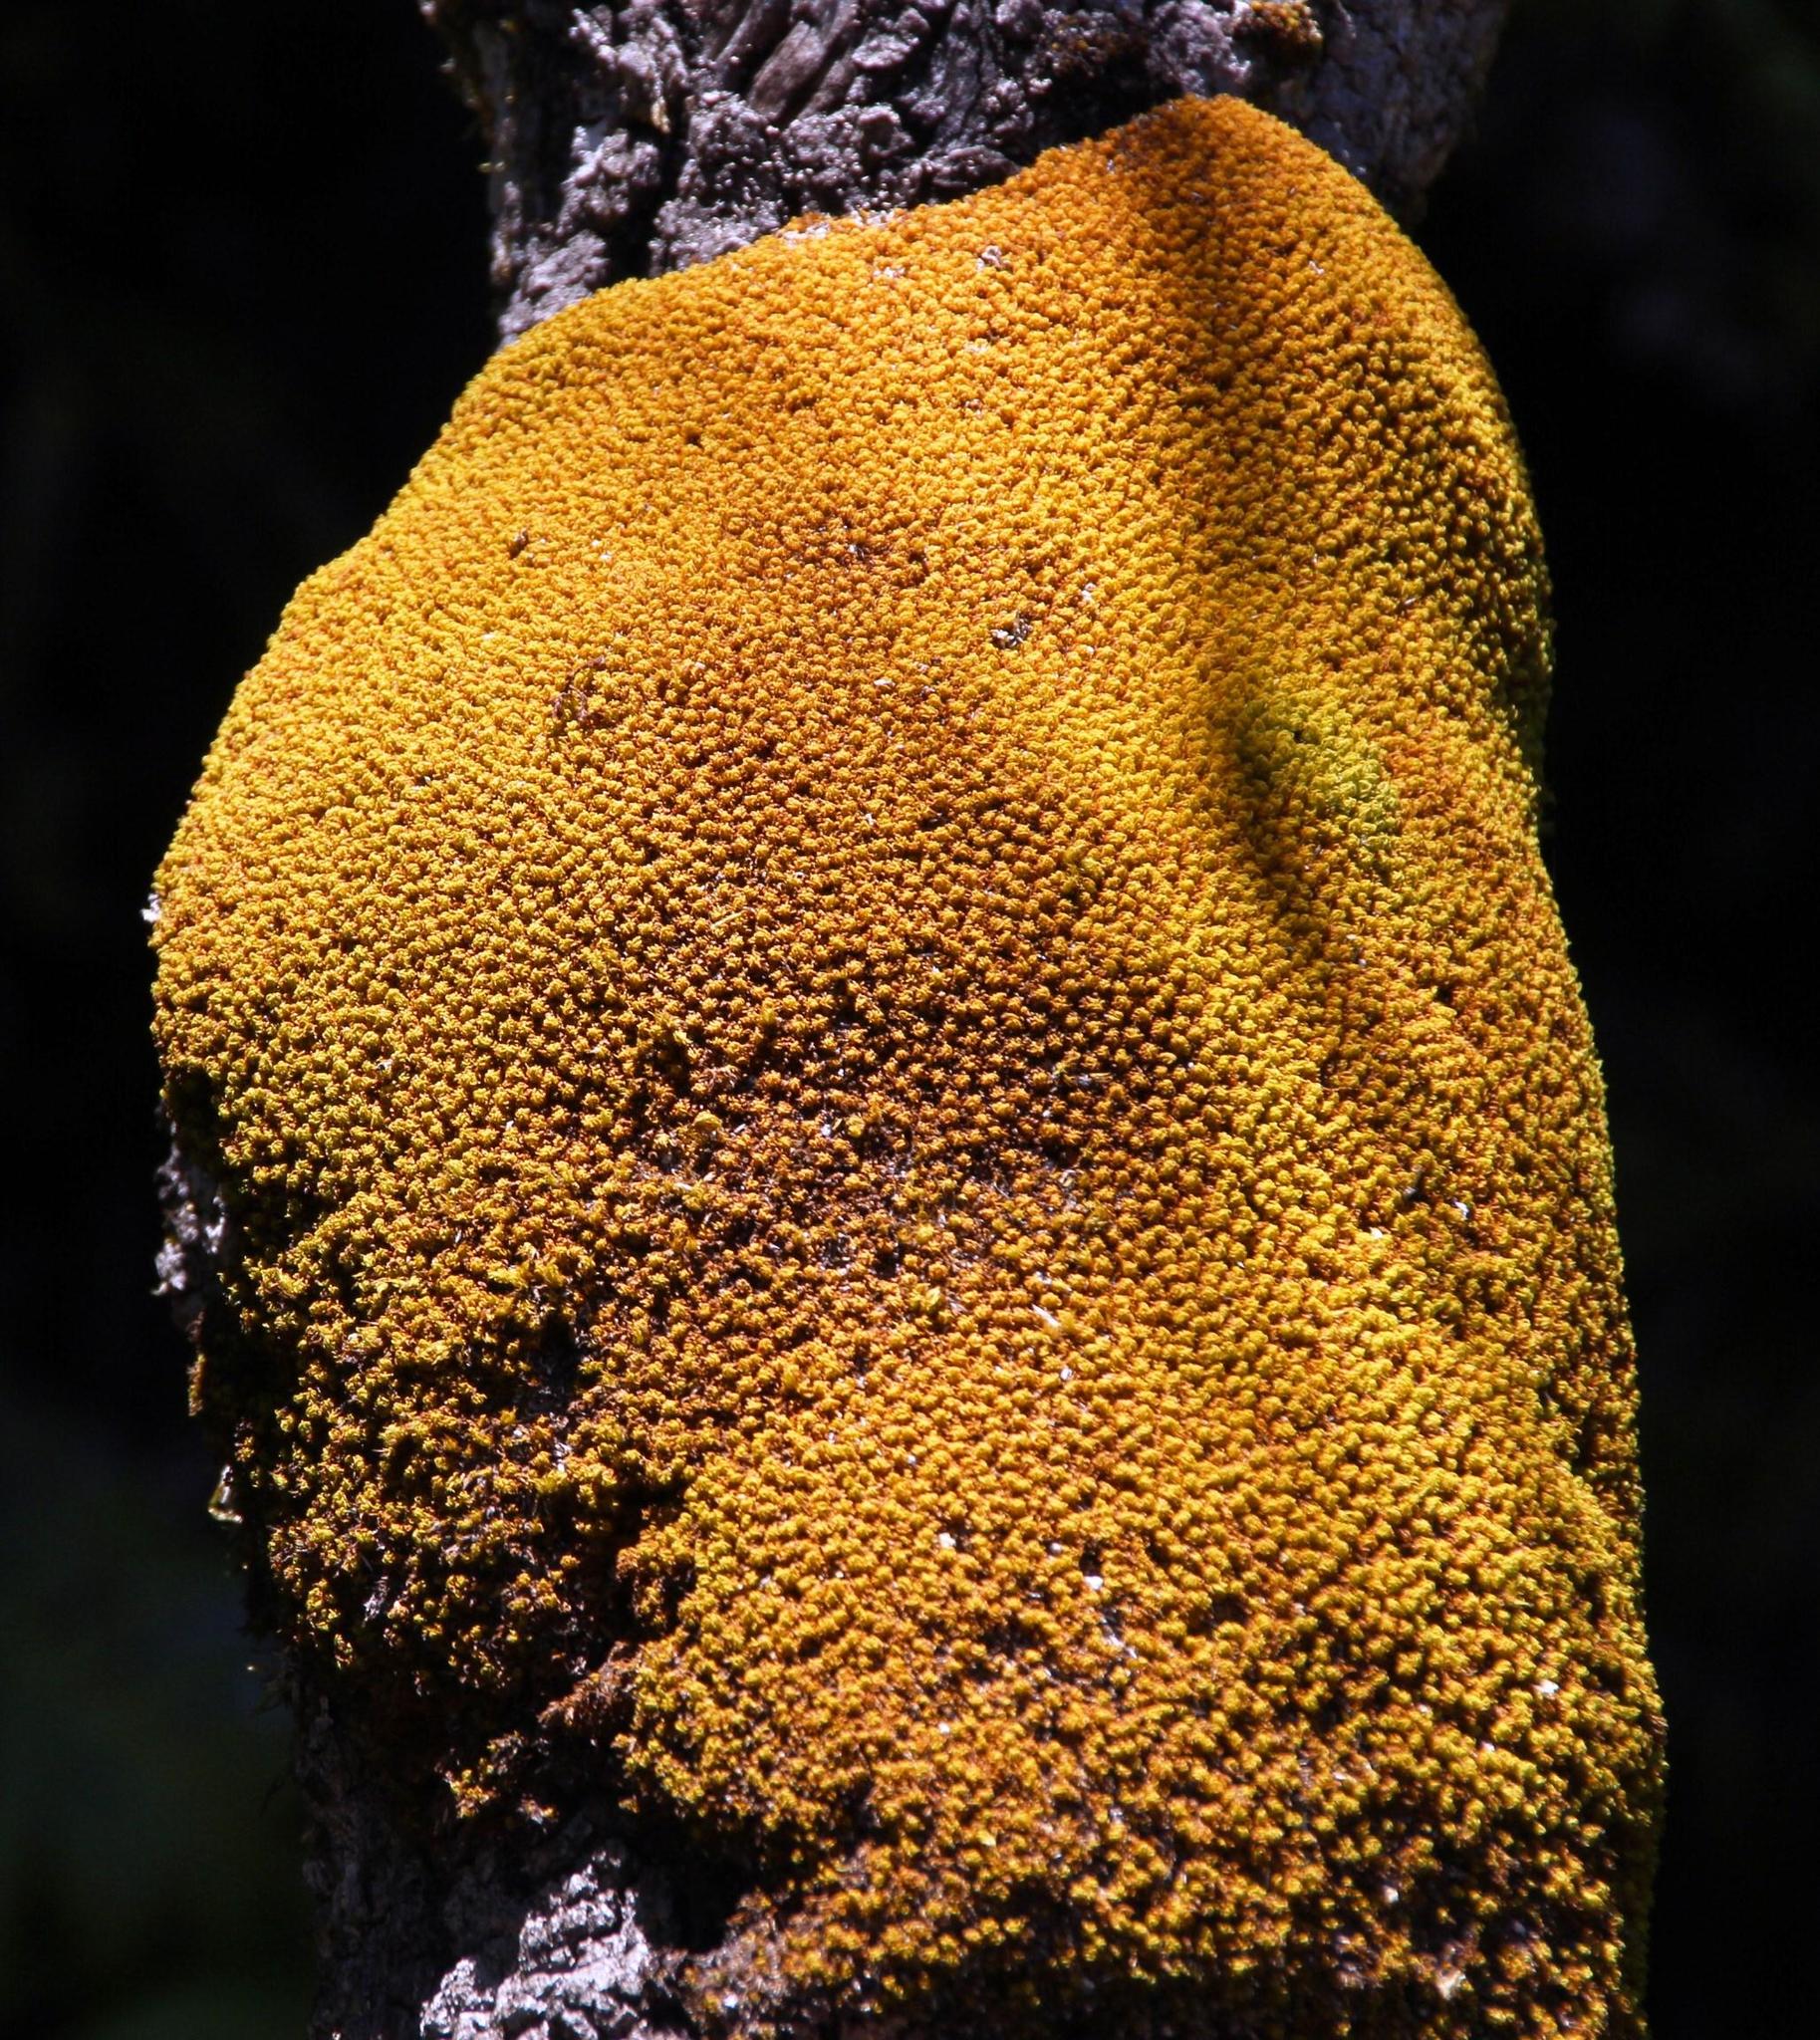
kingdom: Plantae
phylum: Bryophyta
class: Bryopsida
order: Dicranales
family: Hypodontiaceae
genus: Hypodontium
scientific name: Hypodontium pomiforme
